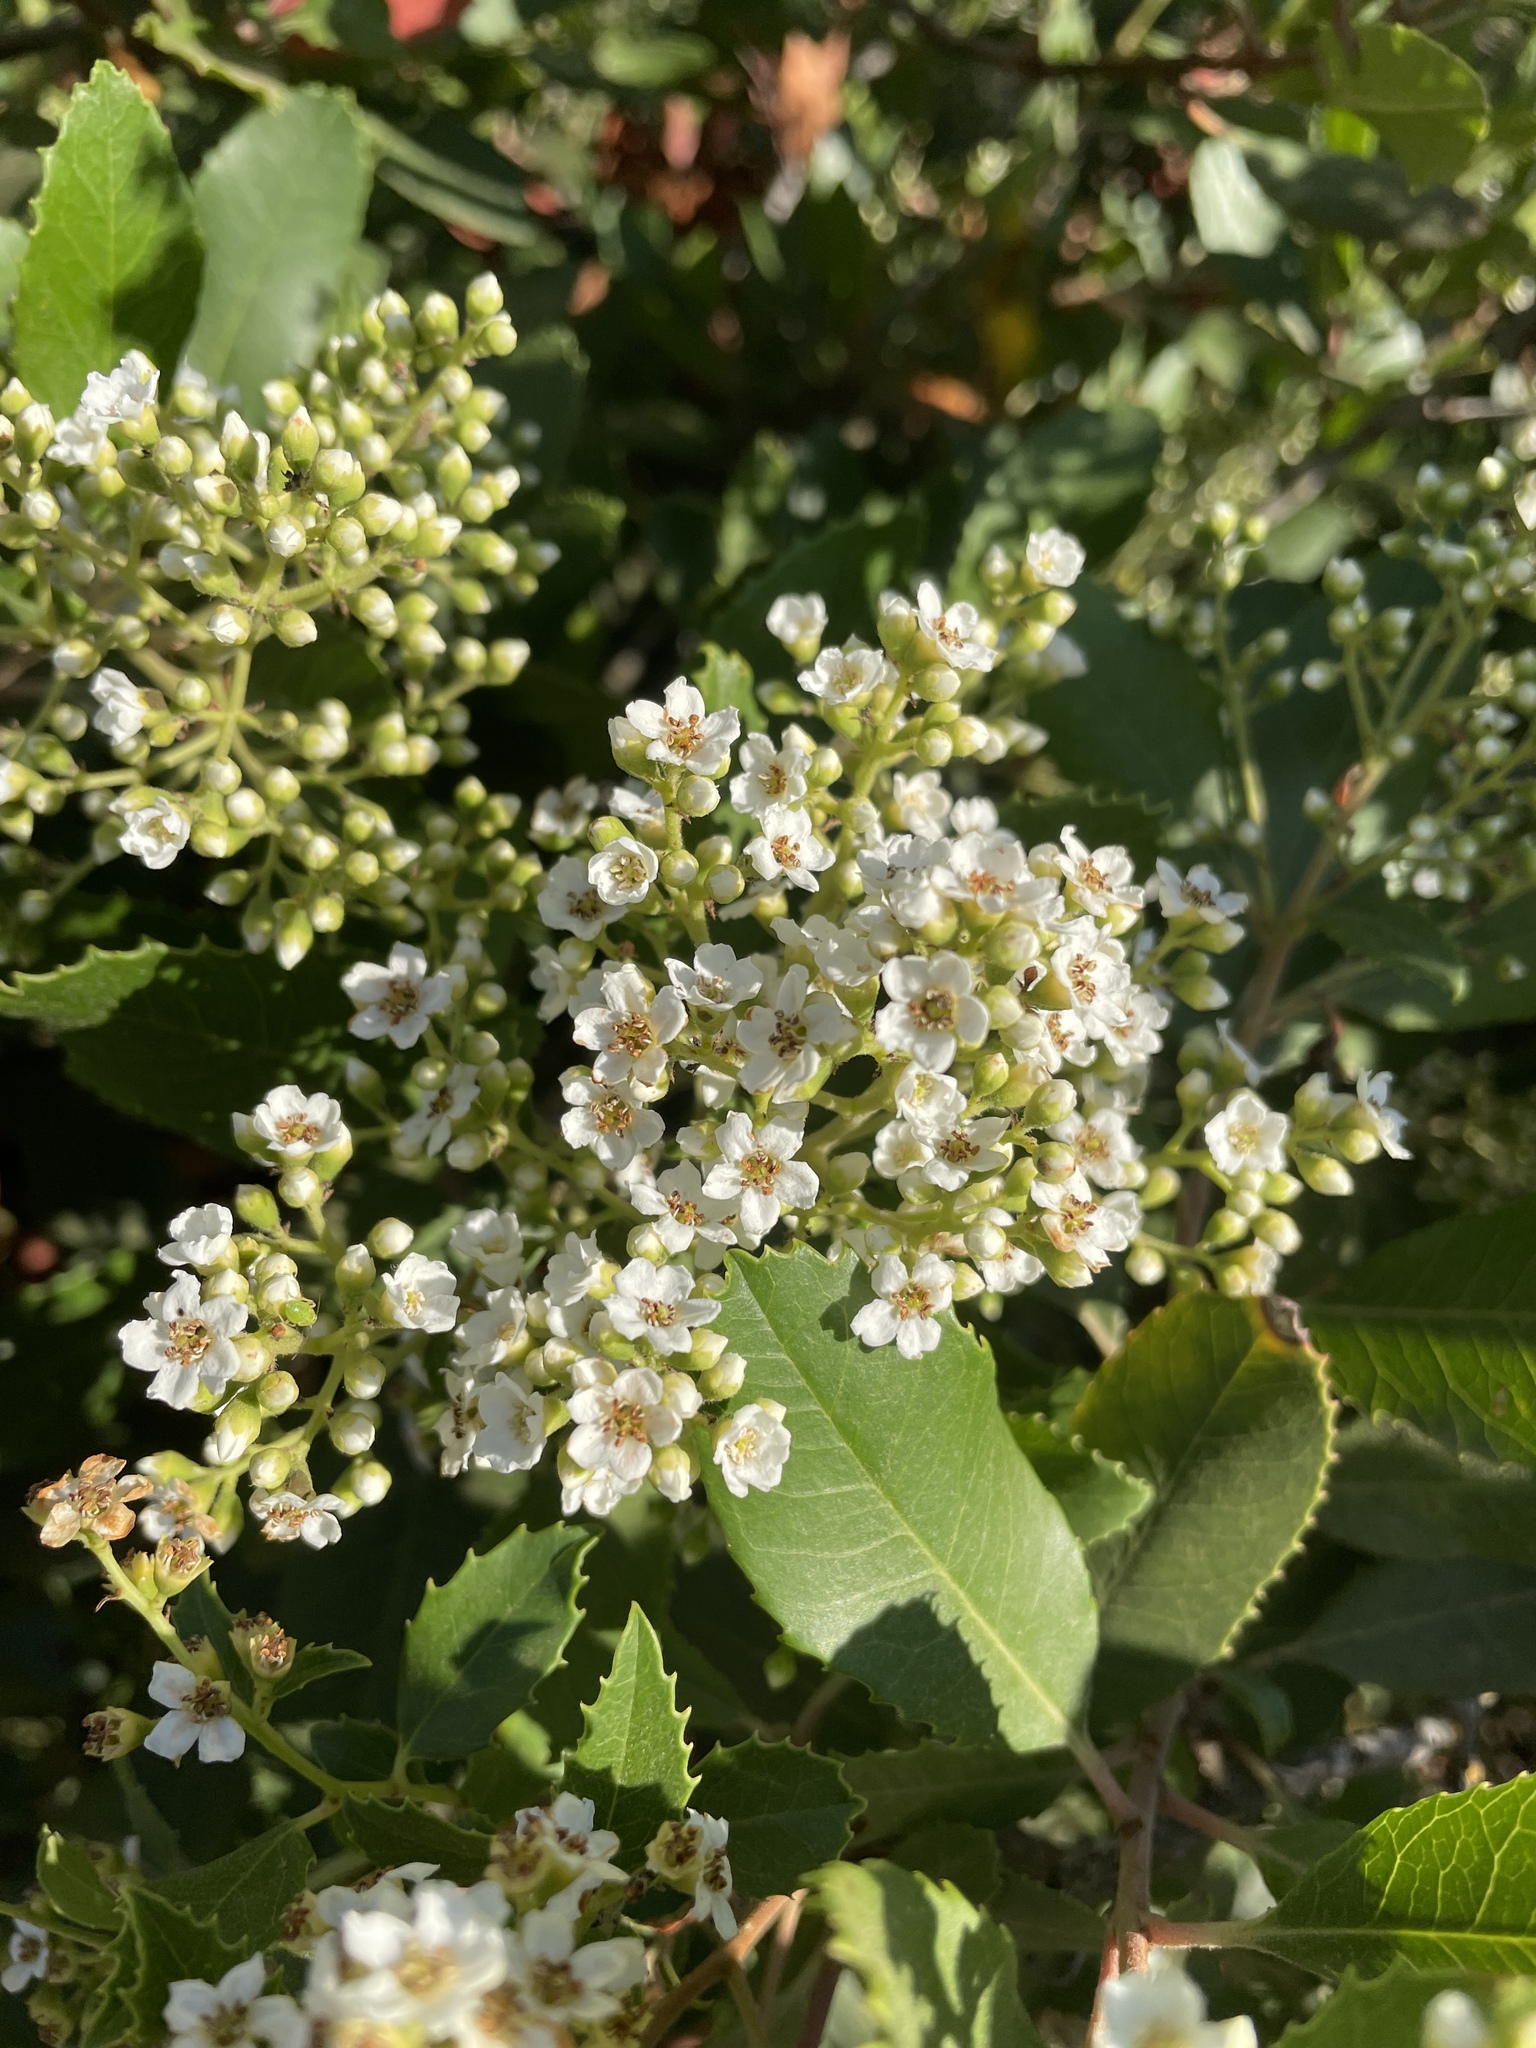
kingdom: Plantae
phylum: Tracheophyta
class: Magnoliopsida
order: Rosales
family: Rosaceae
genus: Heteromeles
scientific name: Heteromeles arbutifolia
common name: California-holly
